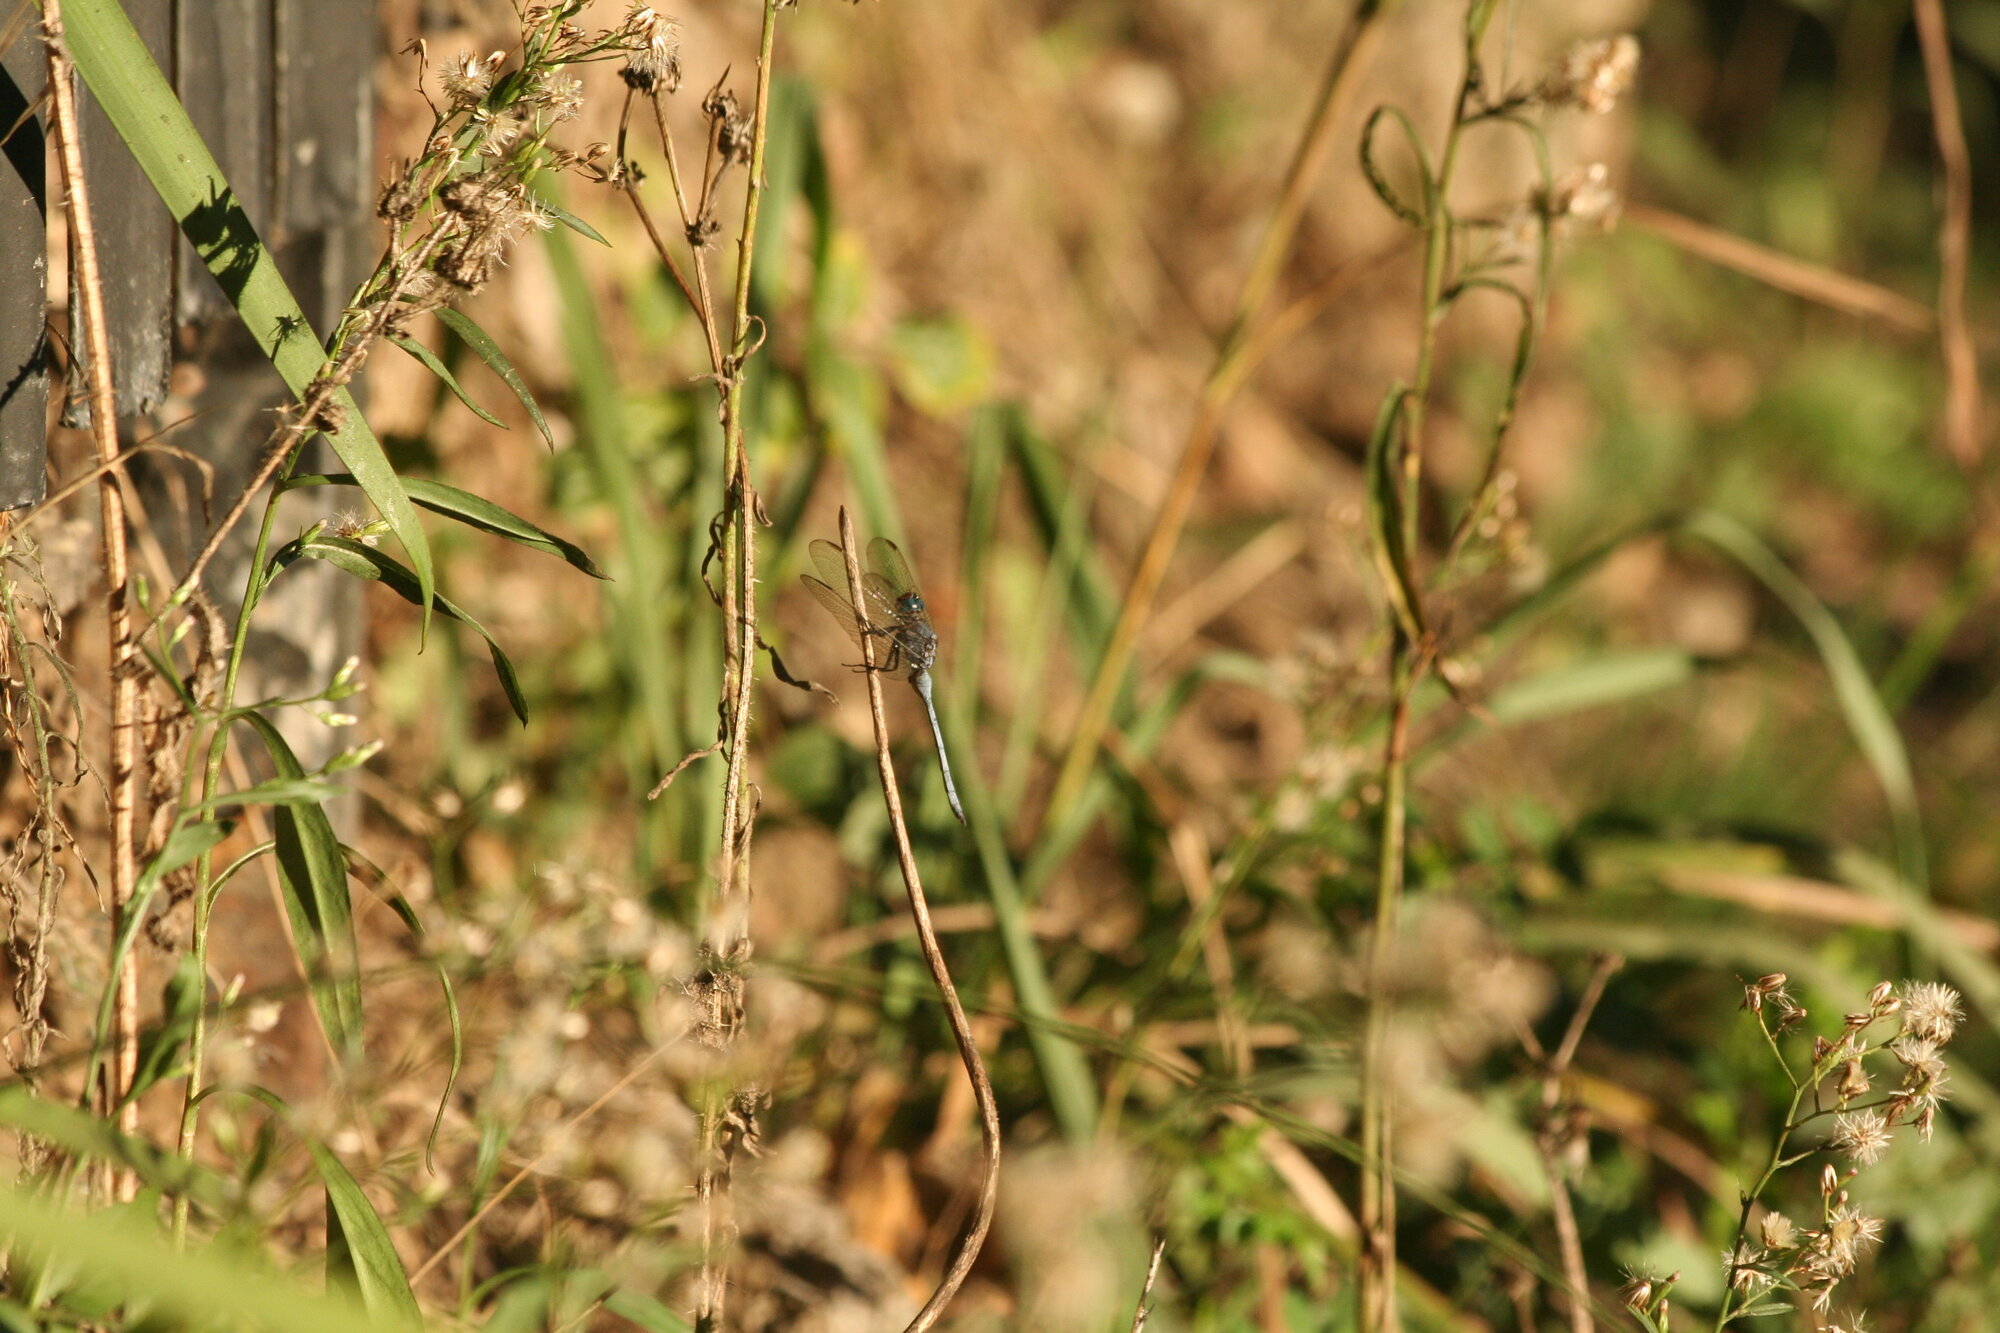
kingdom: Animalia
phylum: Arthropoda
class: Insecta
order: Odonata
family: Libellulidae
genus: Orthetrum
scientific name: Orthetrum julia
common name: Julia skimmer
